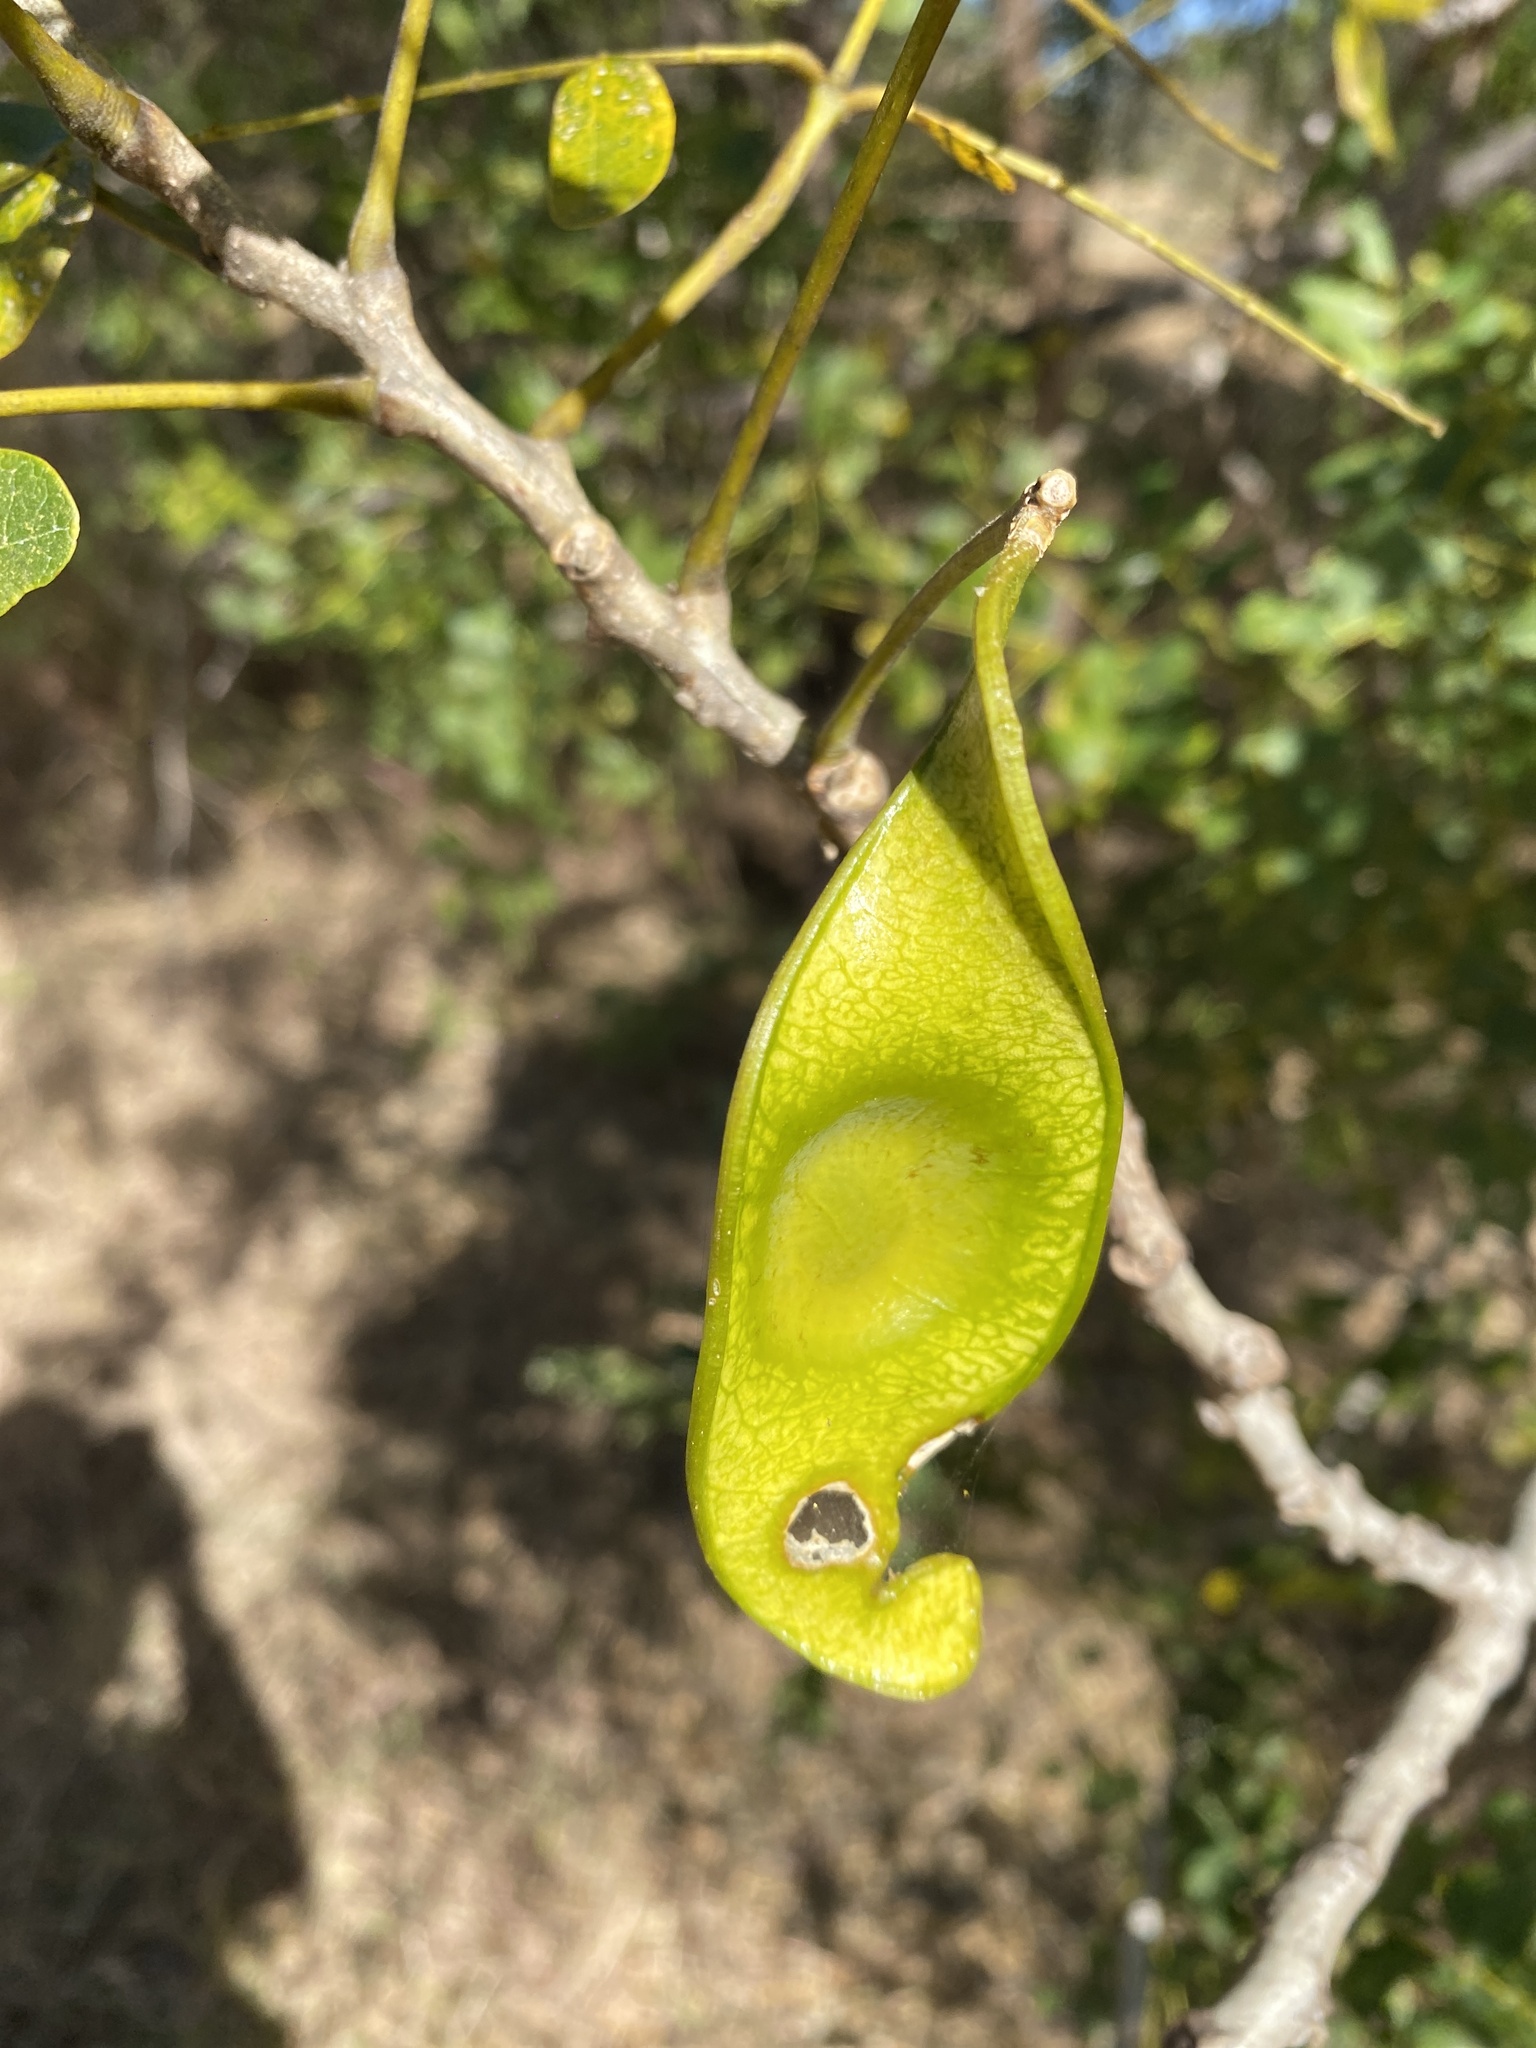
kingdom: Plantae
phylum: Tracheophyta
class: Magnoliopsida
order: Fabales
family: Fabaceae
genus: Albizia
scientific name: Albizia lebbeck
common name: Woman's tongue
